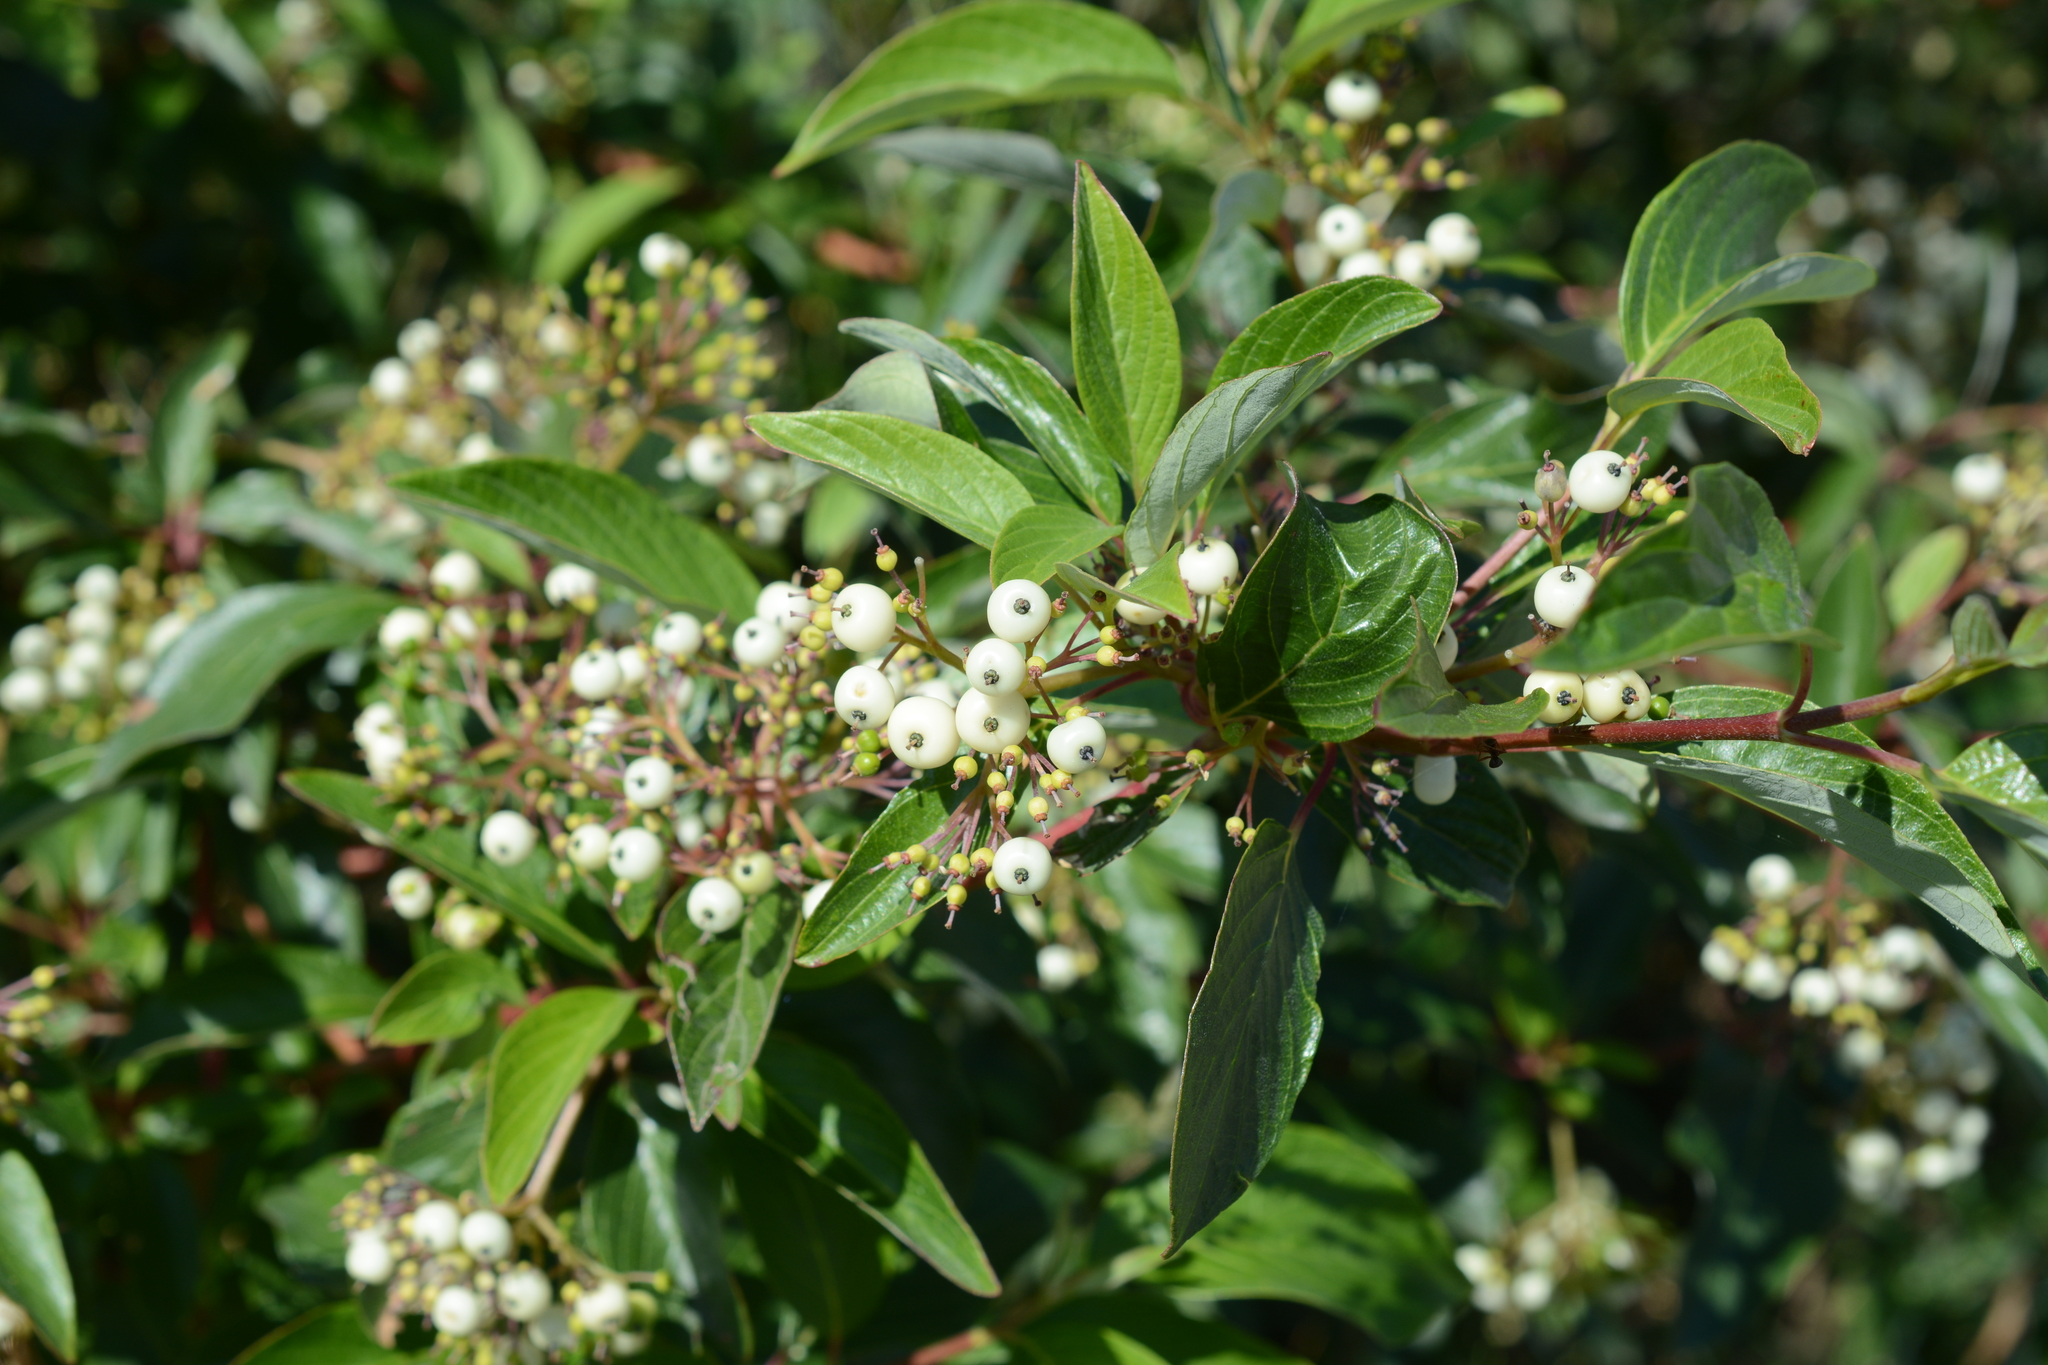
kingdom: Plantae
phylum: Tracheophyta
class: Magnoliopsida
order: Cornales
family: Cornaceae
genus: Cornus
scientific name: Cornus sericea
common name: Red-osier dogwood
